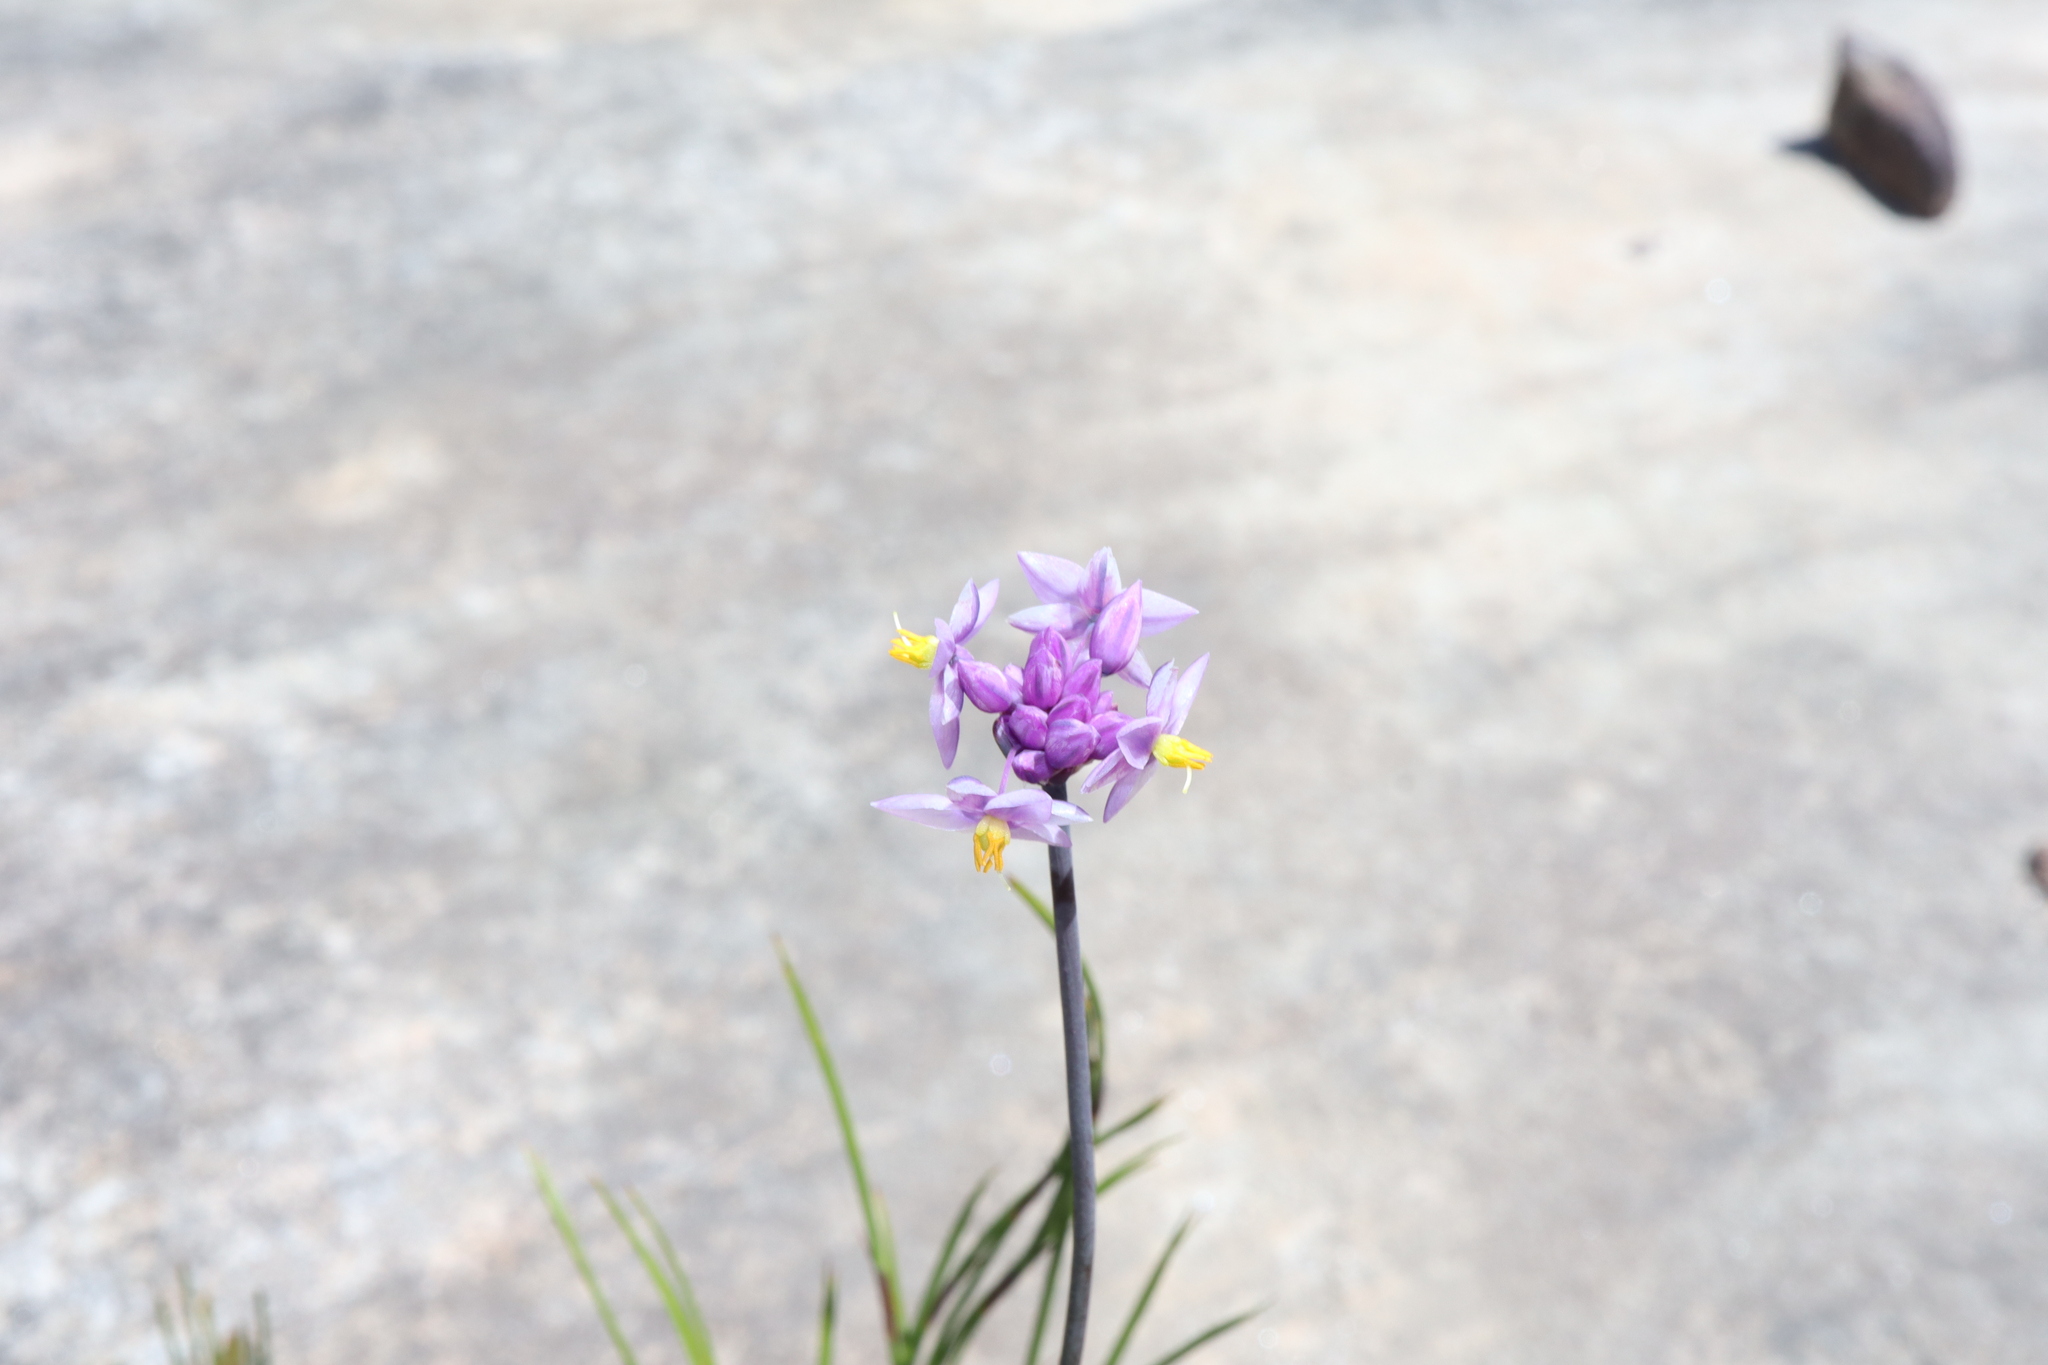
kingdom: Plantae
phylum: Tracheophyta
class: Liliopsida
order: Asparagales
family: Asparagaceae
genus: Sowerbaea
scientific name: Sowerbaea juncea
